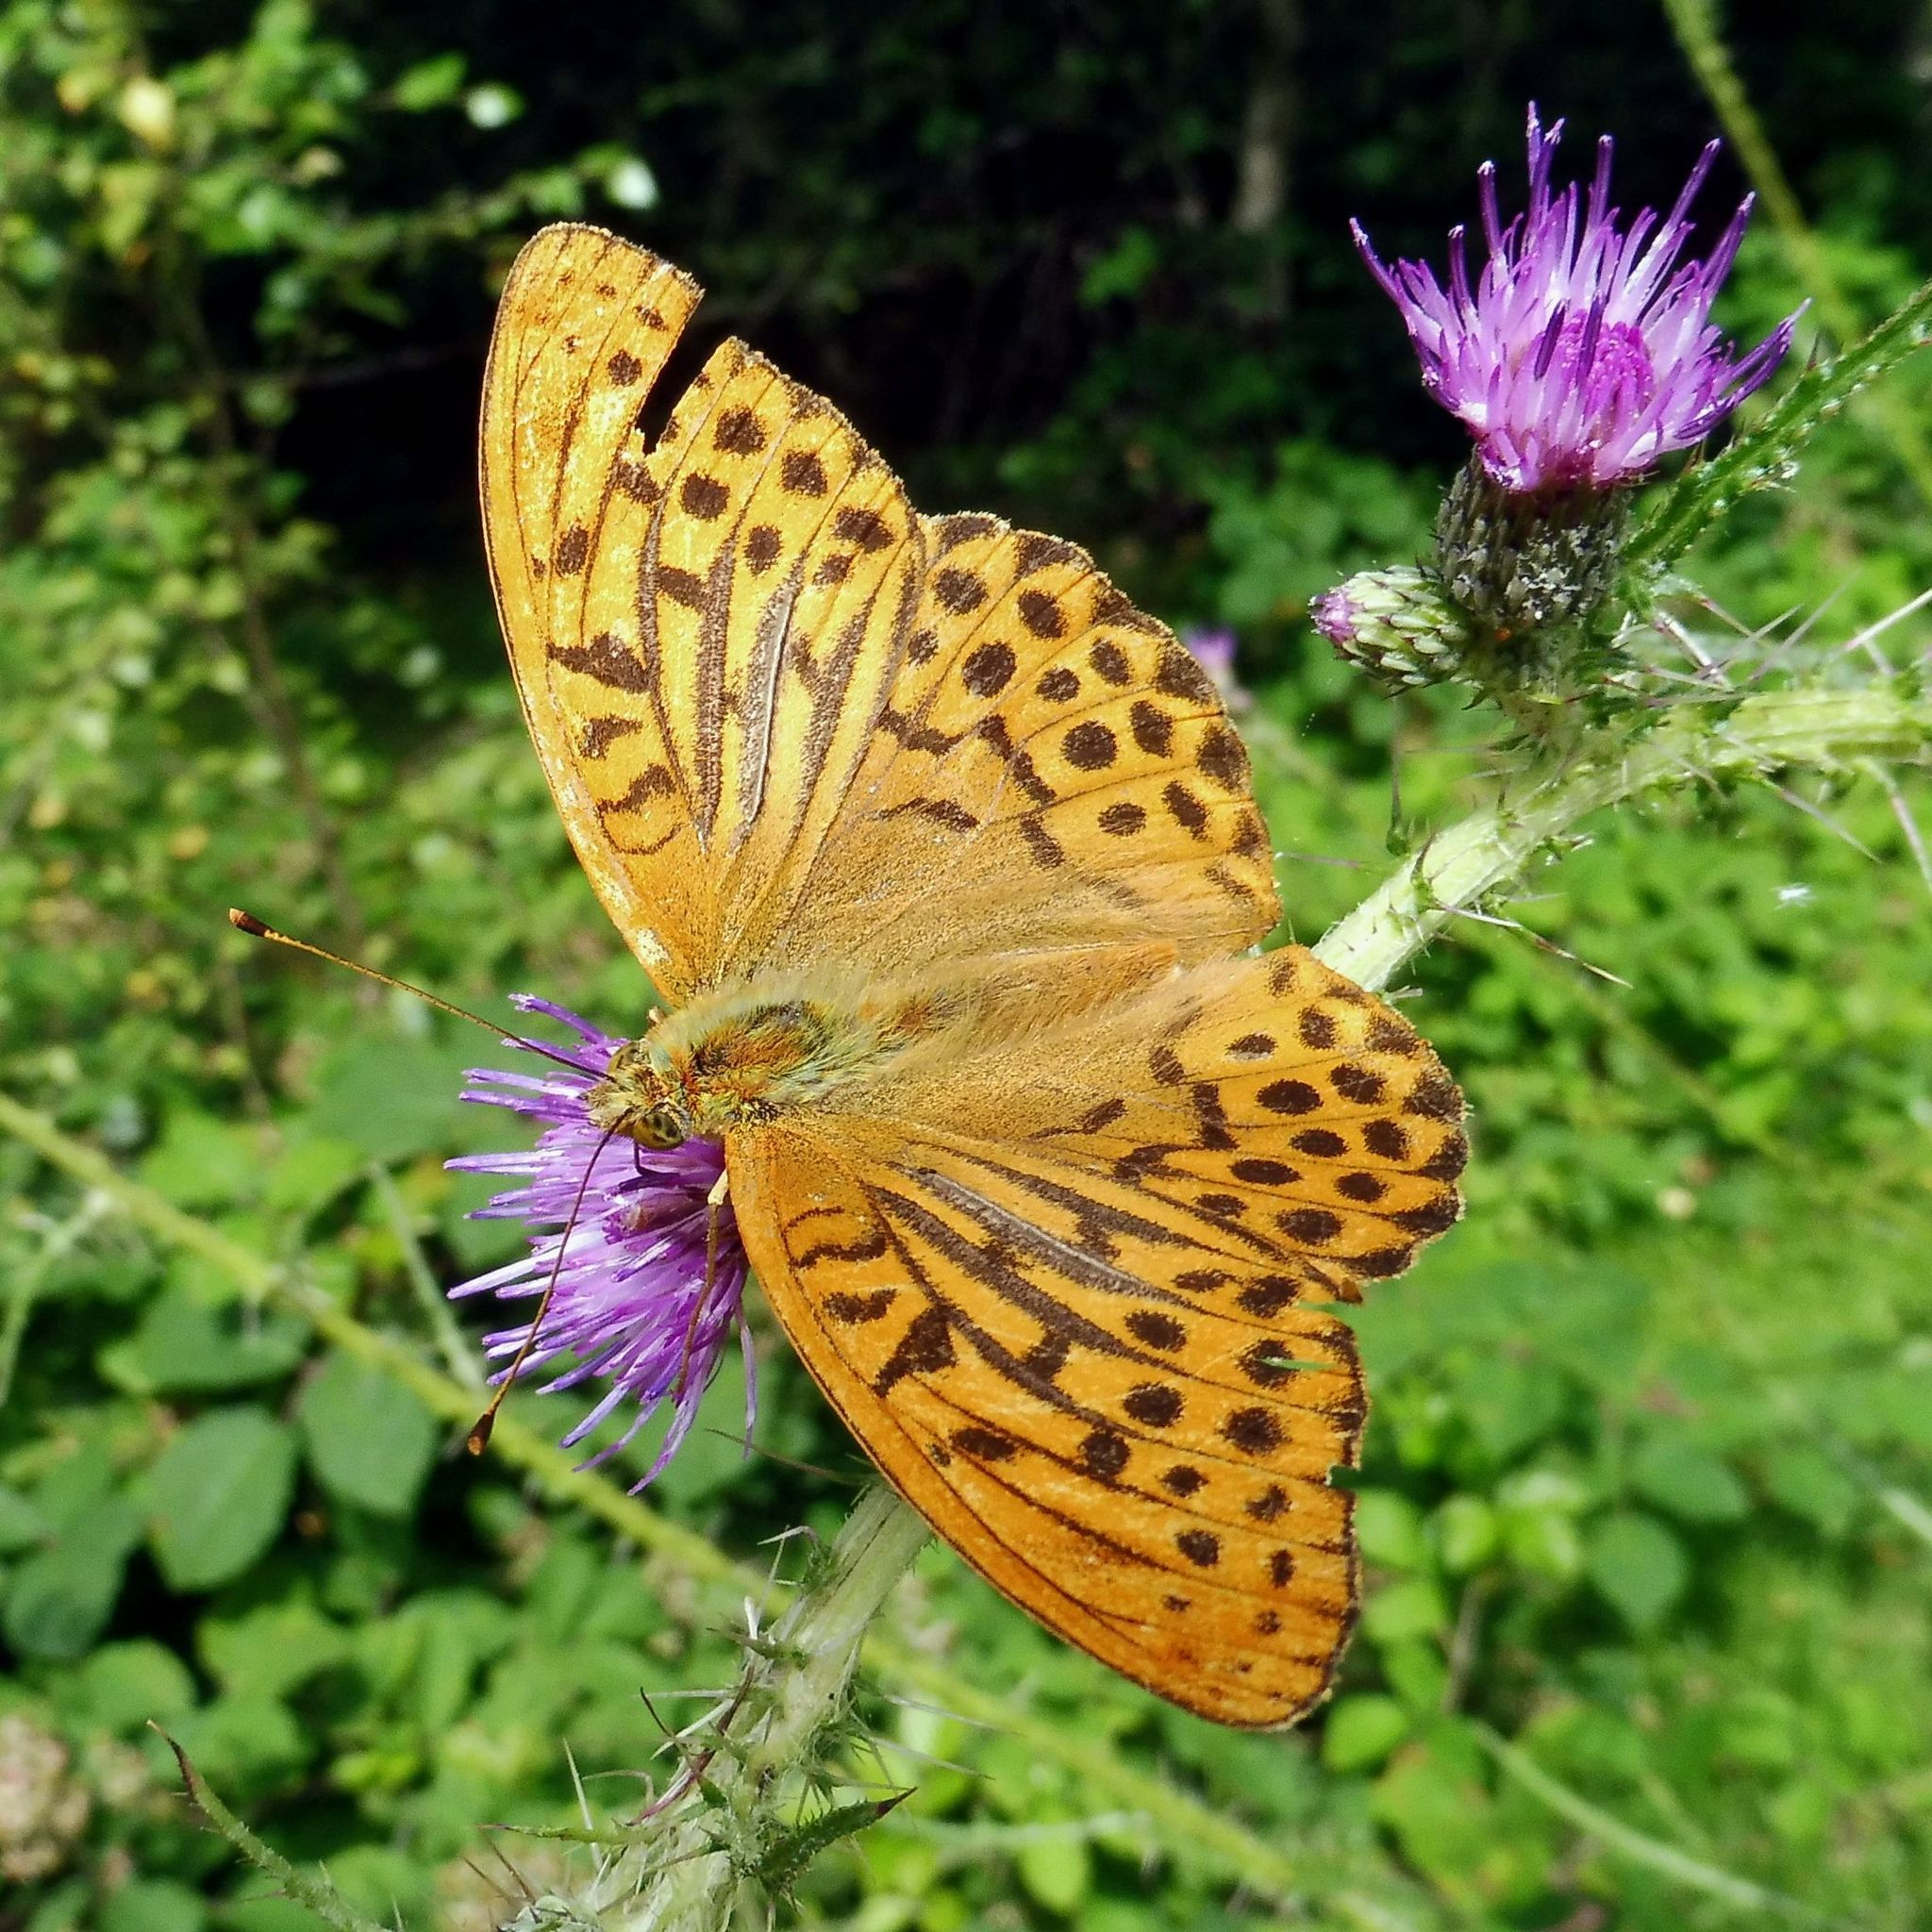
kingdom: Animalia
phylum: Arthropoda
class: Insecta
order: Lepidoptera
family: Nymphalidae
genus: Argynnis
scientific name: Argynnis paphia
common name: Silver-washed fritillary
